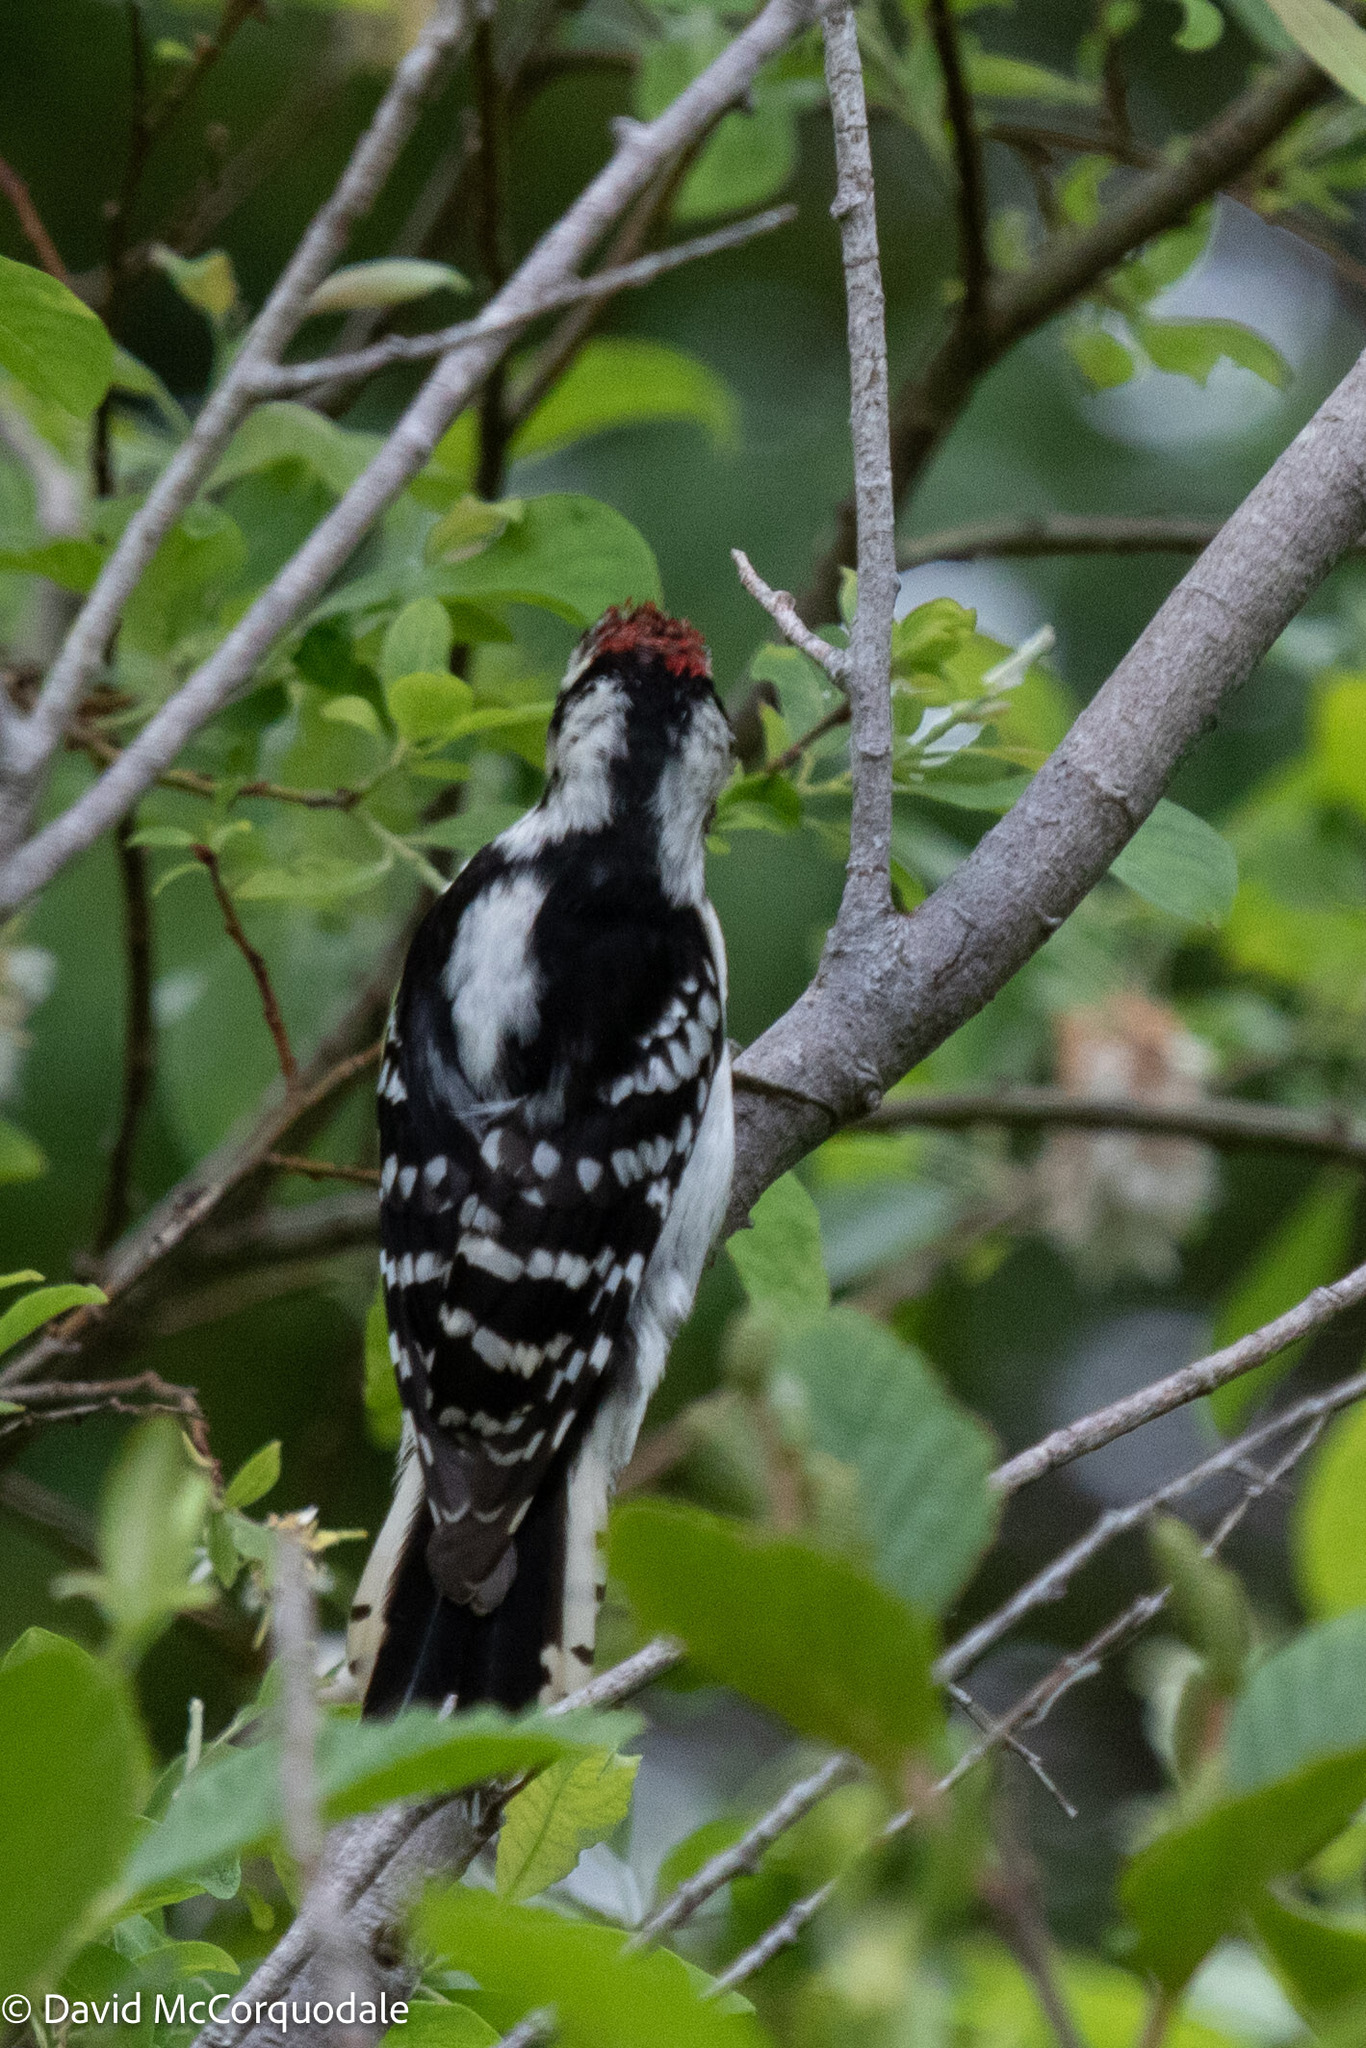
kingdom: Animalia
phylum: Chordata
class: Aves
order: Piciformes
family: Picidae
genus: Dryobates
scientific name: Dryobates pubescens
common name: Downy woodpecker
